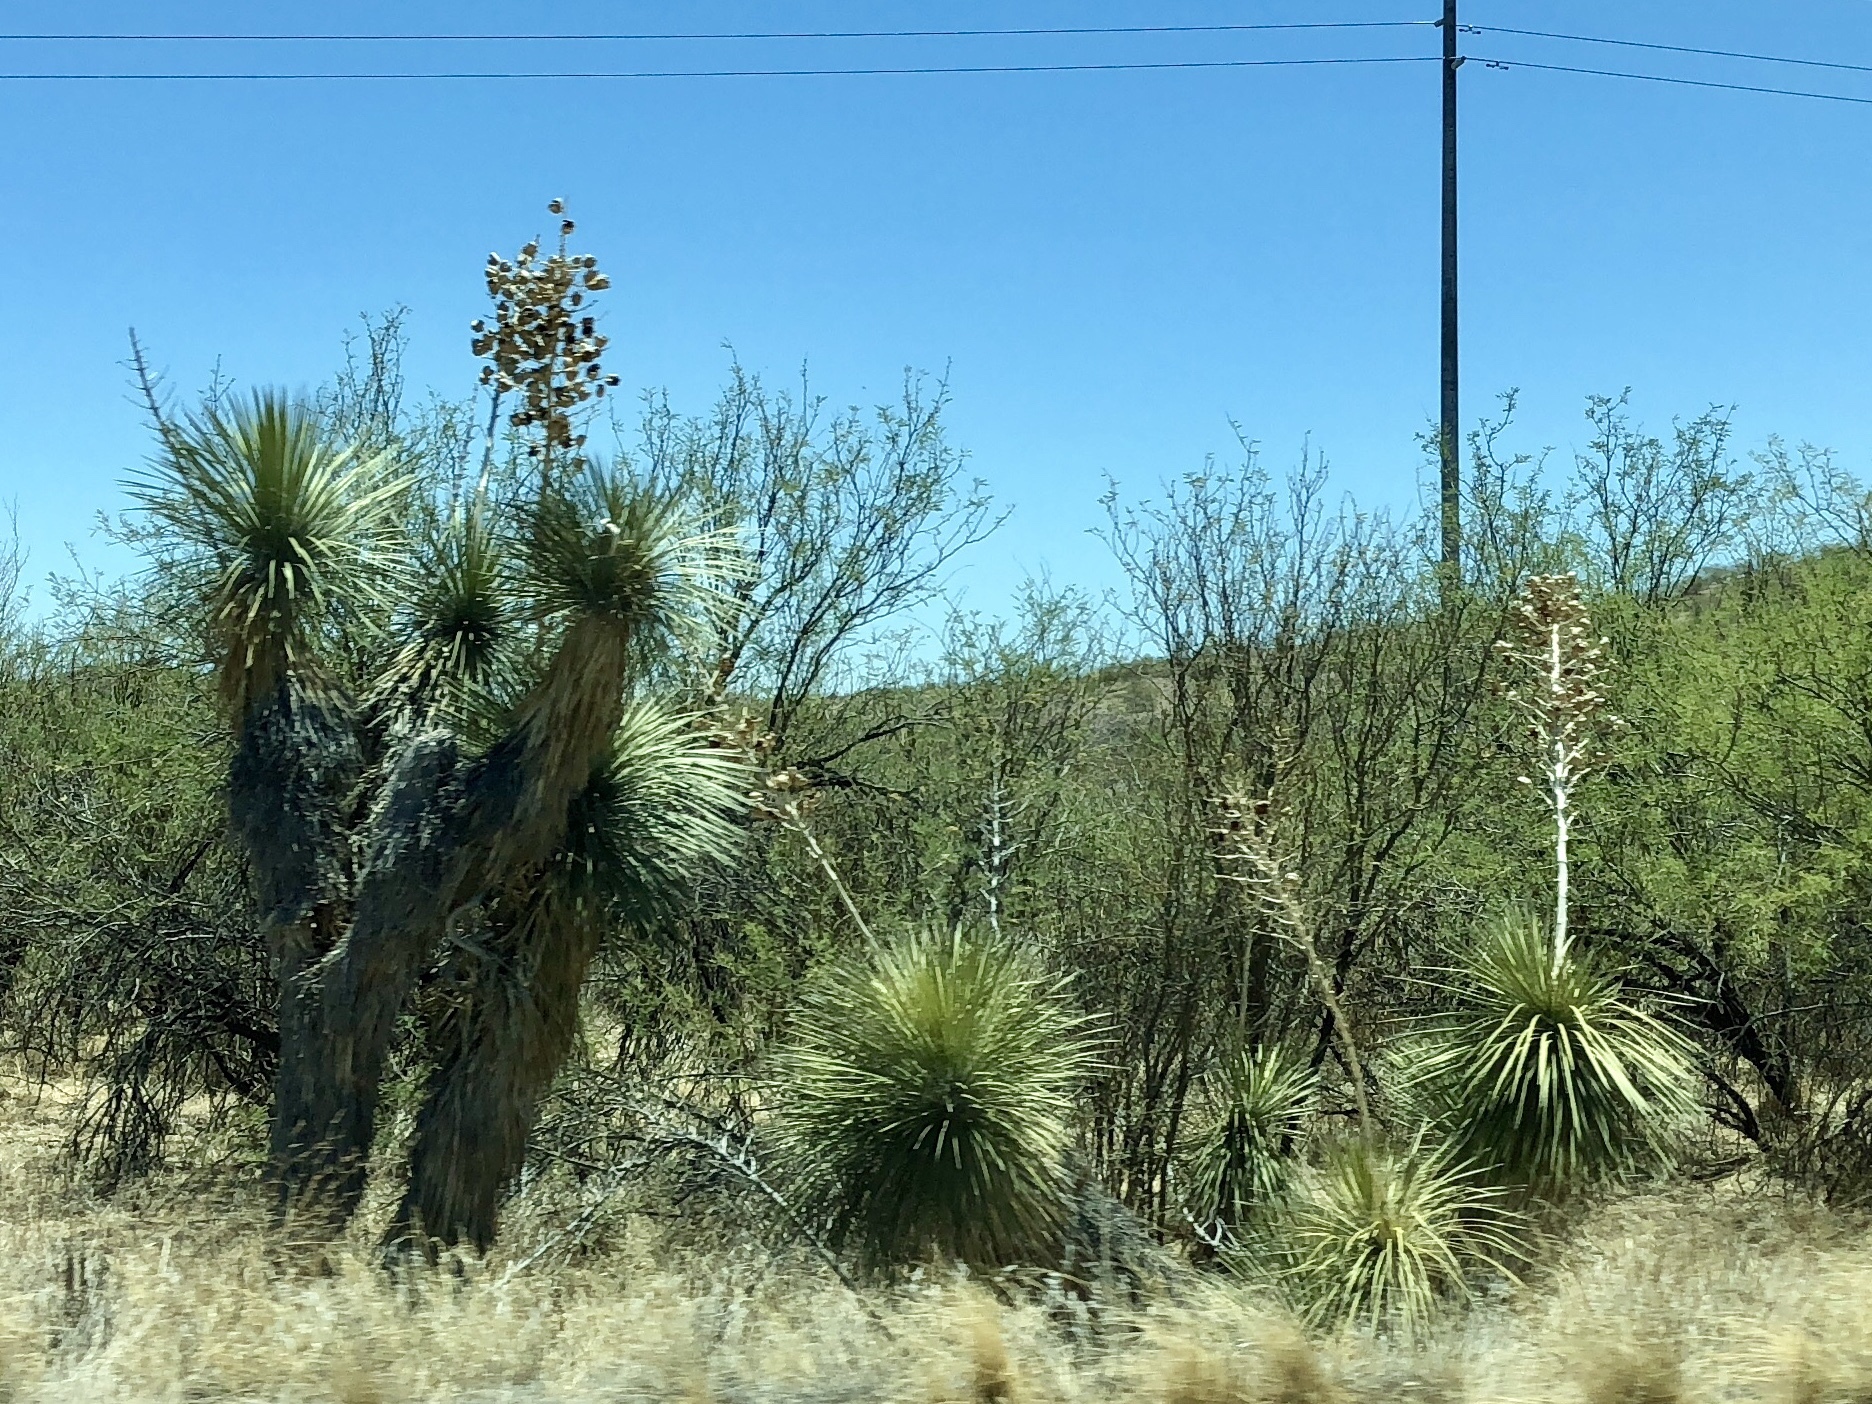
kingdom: Plantae
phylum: Tracheophyta
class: Liliopsida
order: Asparagales
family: Asparagaceae
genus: Yucca
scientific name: Yucca elata
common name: Palmella
